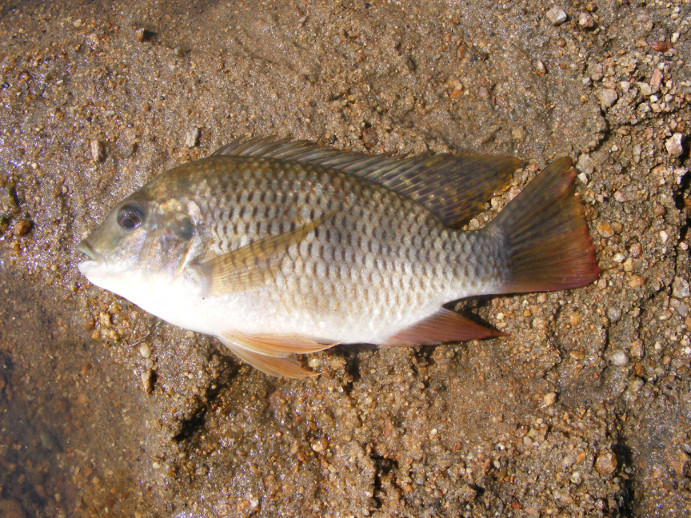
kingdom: Animalia
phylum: Chordata
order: Perciformes
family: Cichlidae
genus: Coptodon
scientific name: Coptodon rendalli
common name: Redbreast tilapia
